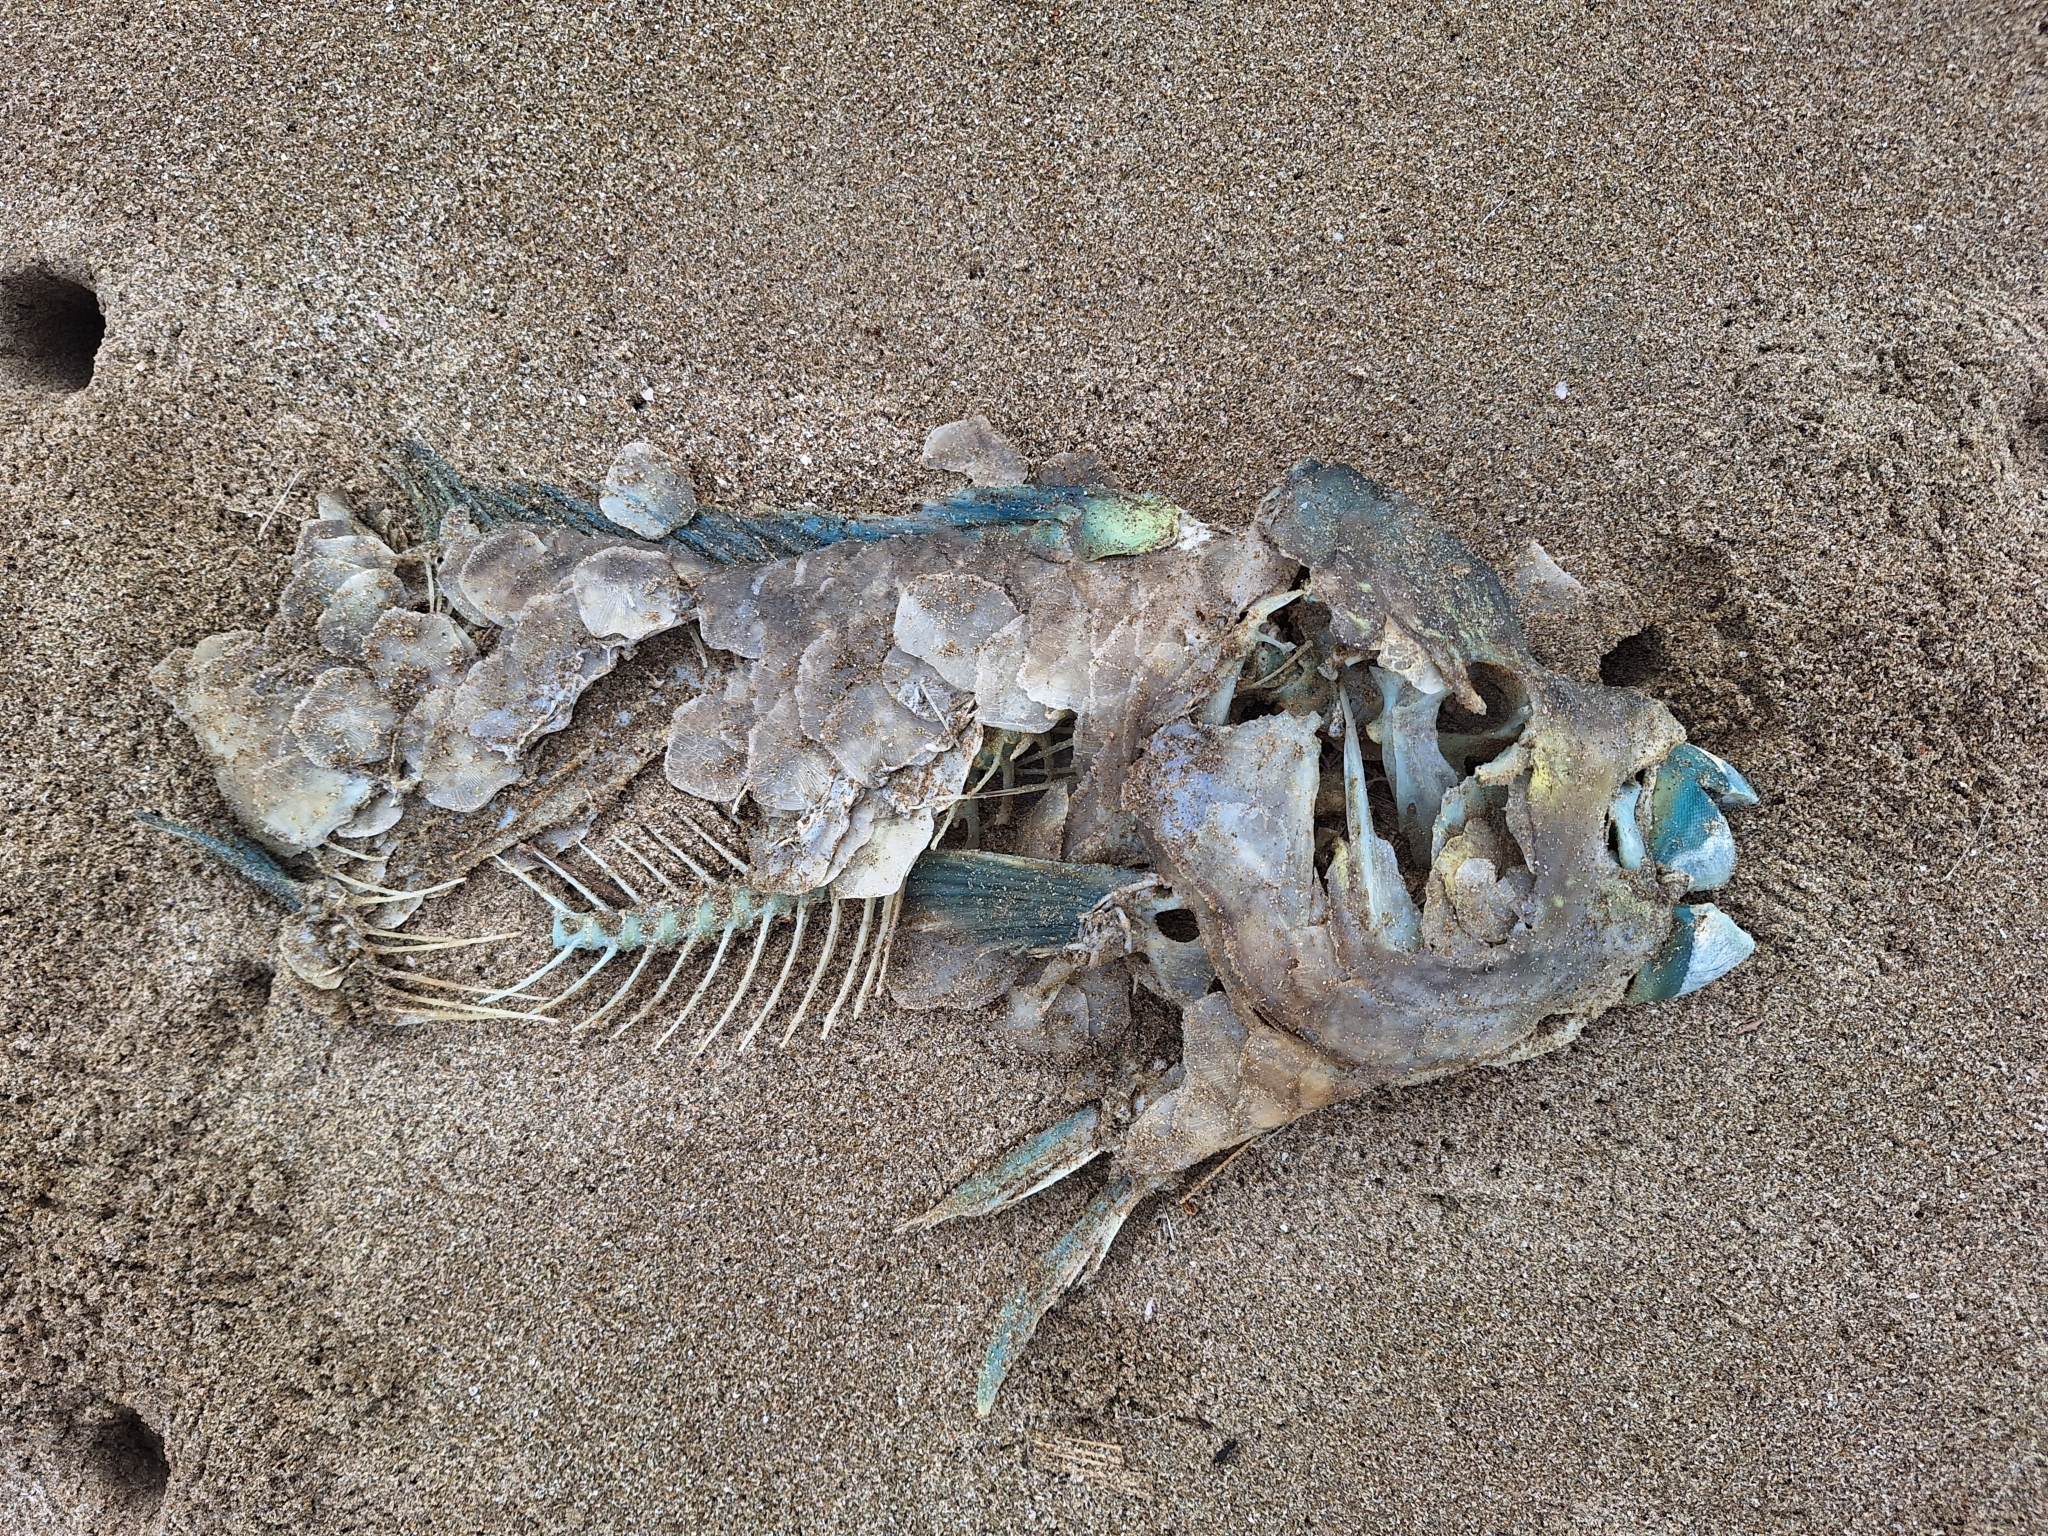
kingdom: Animalia
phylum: Chordata
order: Perciformes
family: Scaridae
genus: Scarus
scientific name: Scarus perrico
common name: Bumphead parrotfish
